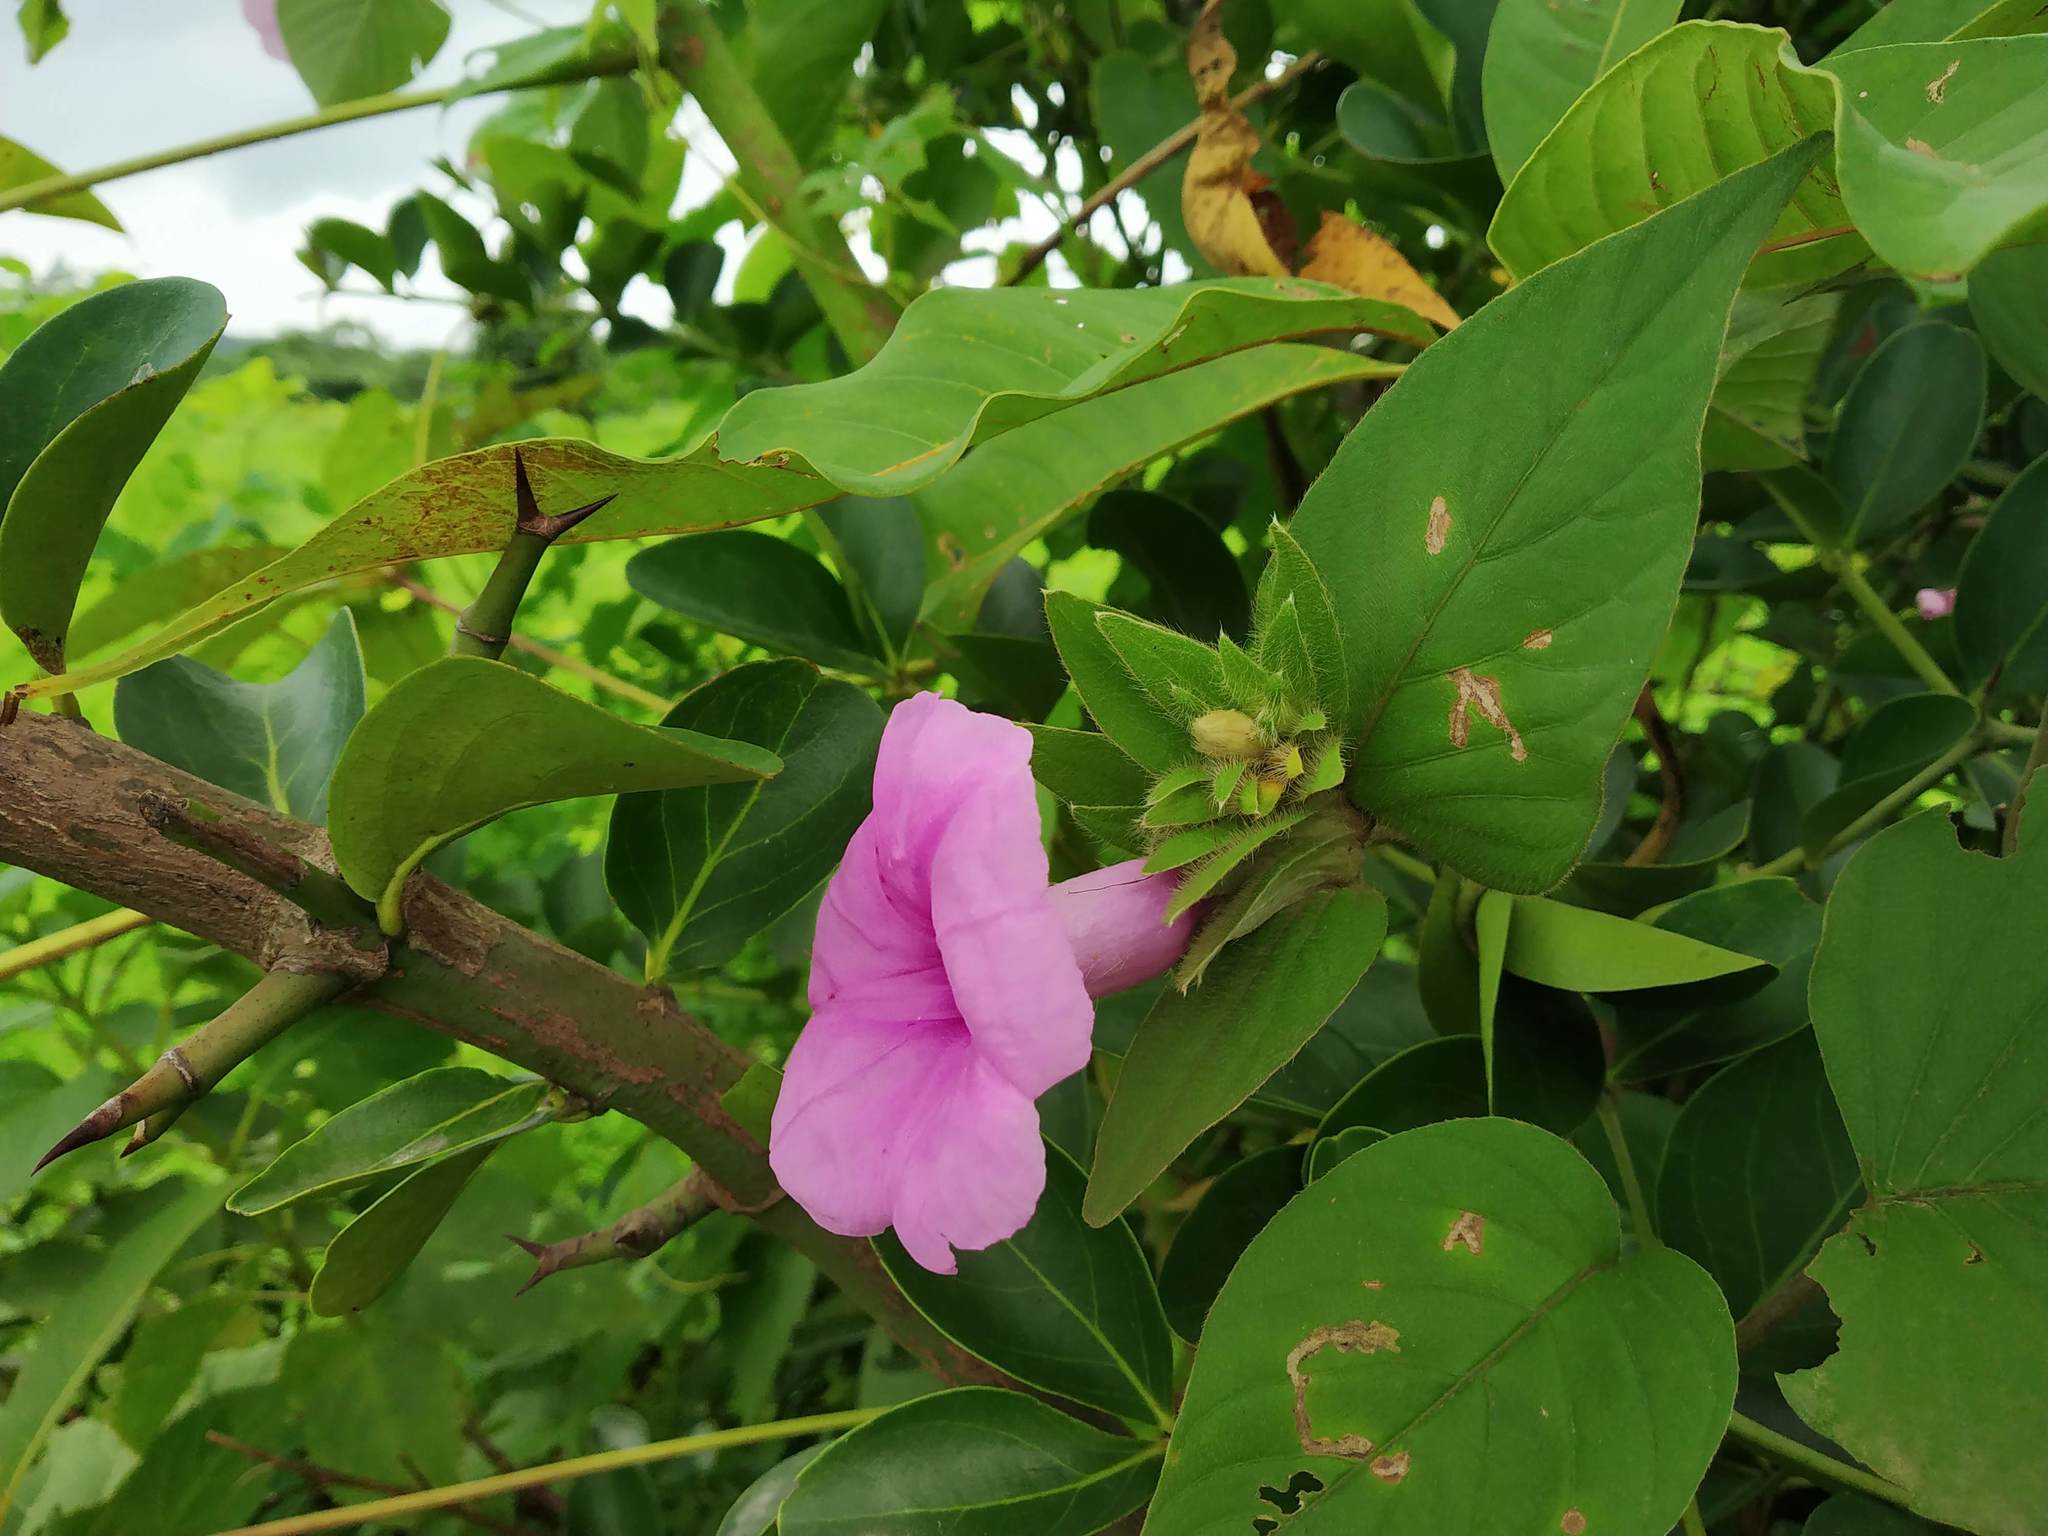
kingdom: Plantae
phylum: Tracheophyta
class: Magnoliopsida
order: Solanales
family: Convolvulaceae
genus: Argyreia
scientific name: Argyreia sericea
